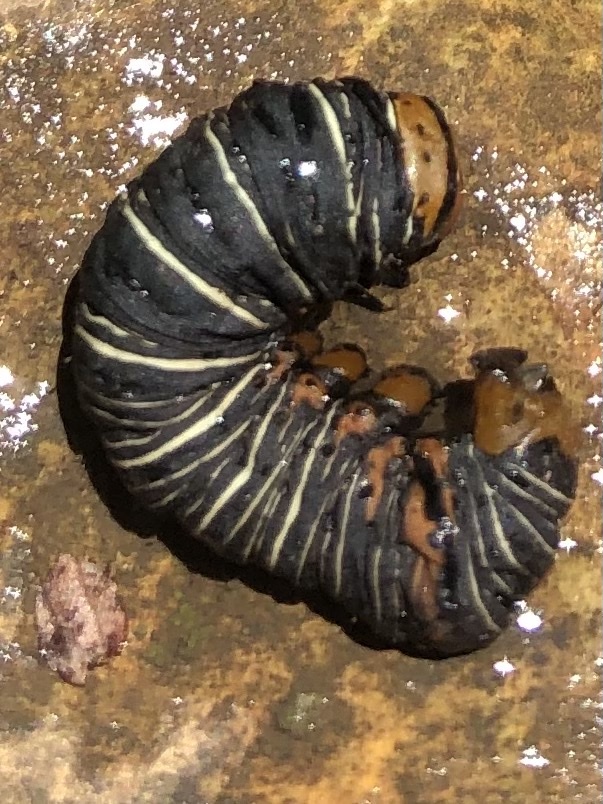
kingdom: Animalia
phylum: Arthropoda
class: Insecta
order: Lepidoptera
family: Noctuidae
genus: Xerociris
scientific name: Xerociris wilsonii
